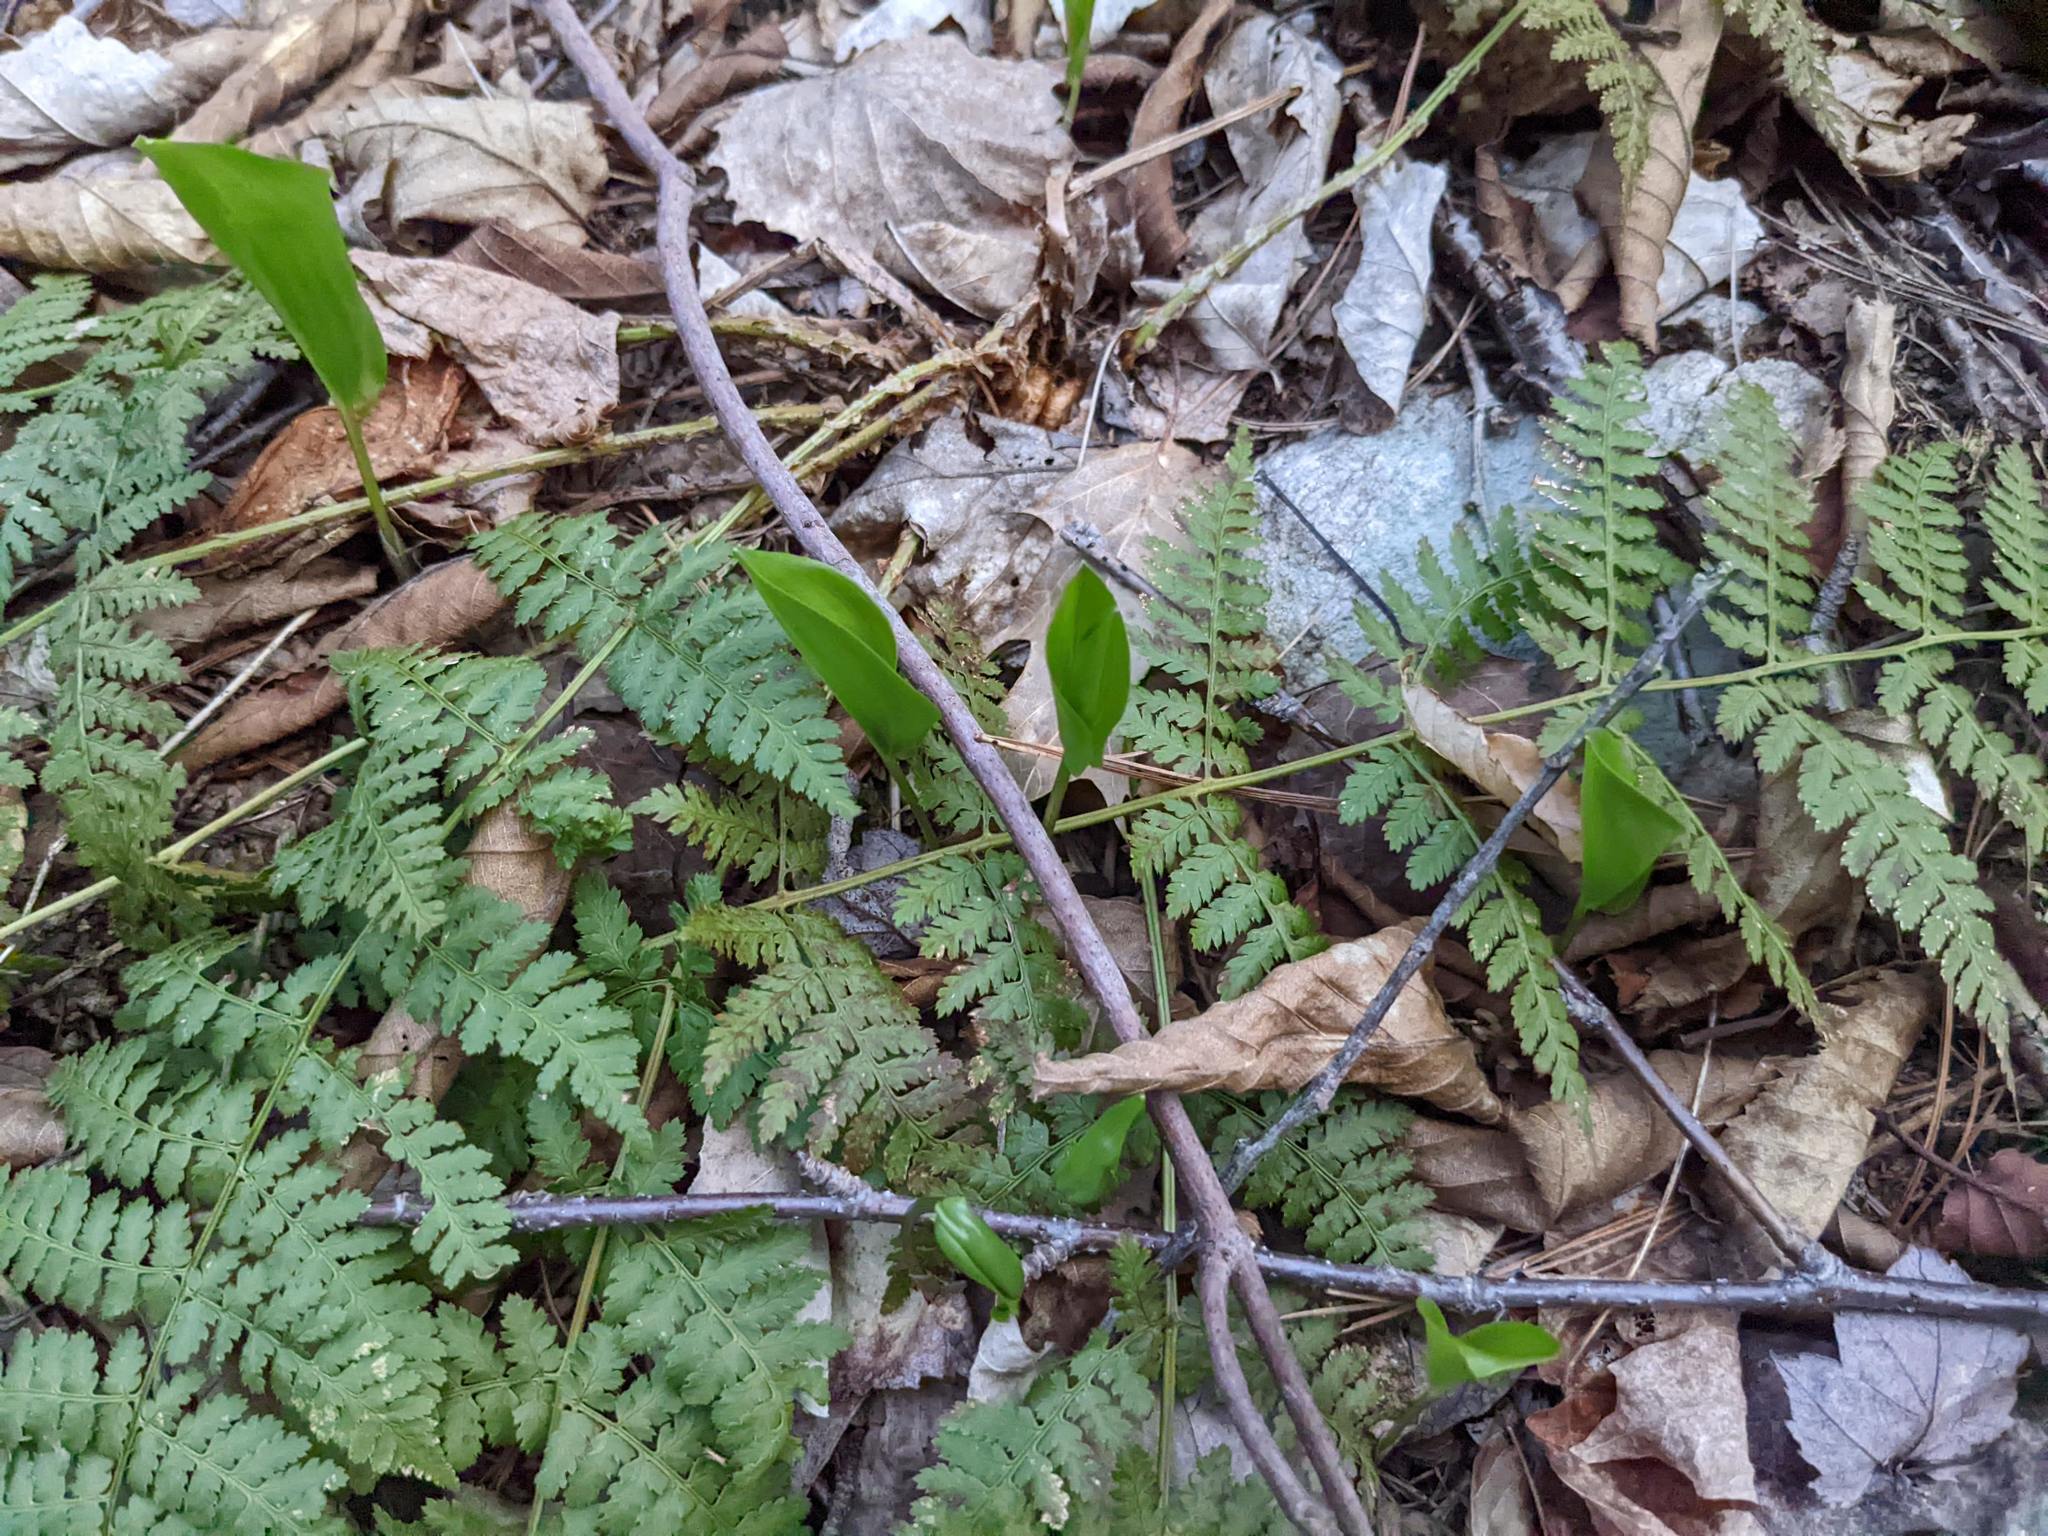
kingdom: Plantae
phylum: Tracheophyta
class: Liliopsida
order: Asparagales
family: Asparagaceae
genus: Maianthemum
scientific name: Maianthemum canadense
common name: False lily-of-the-valley
